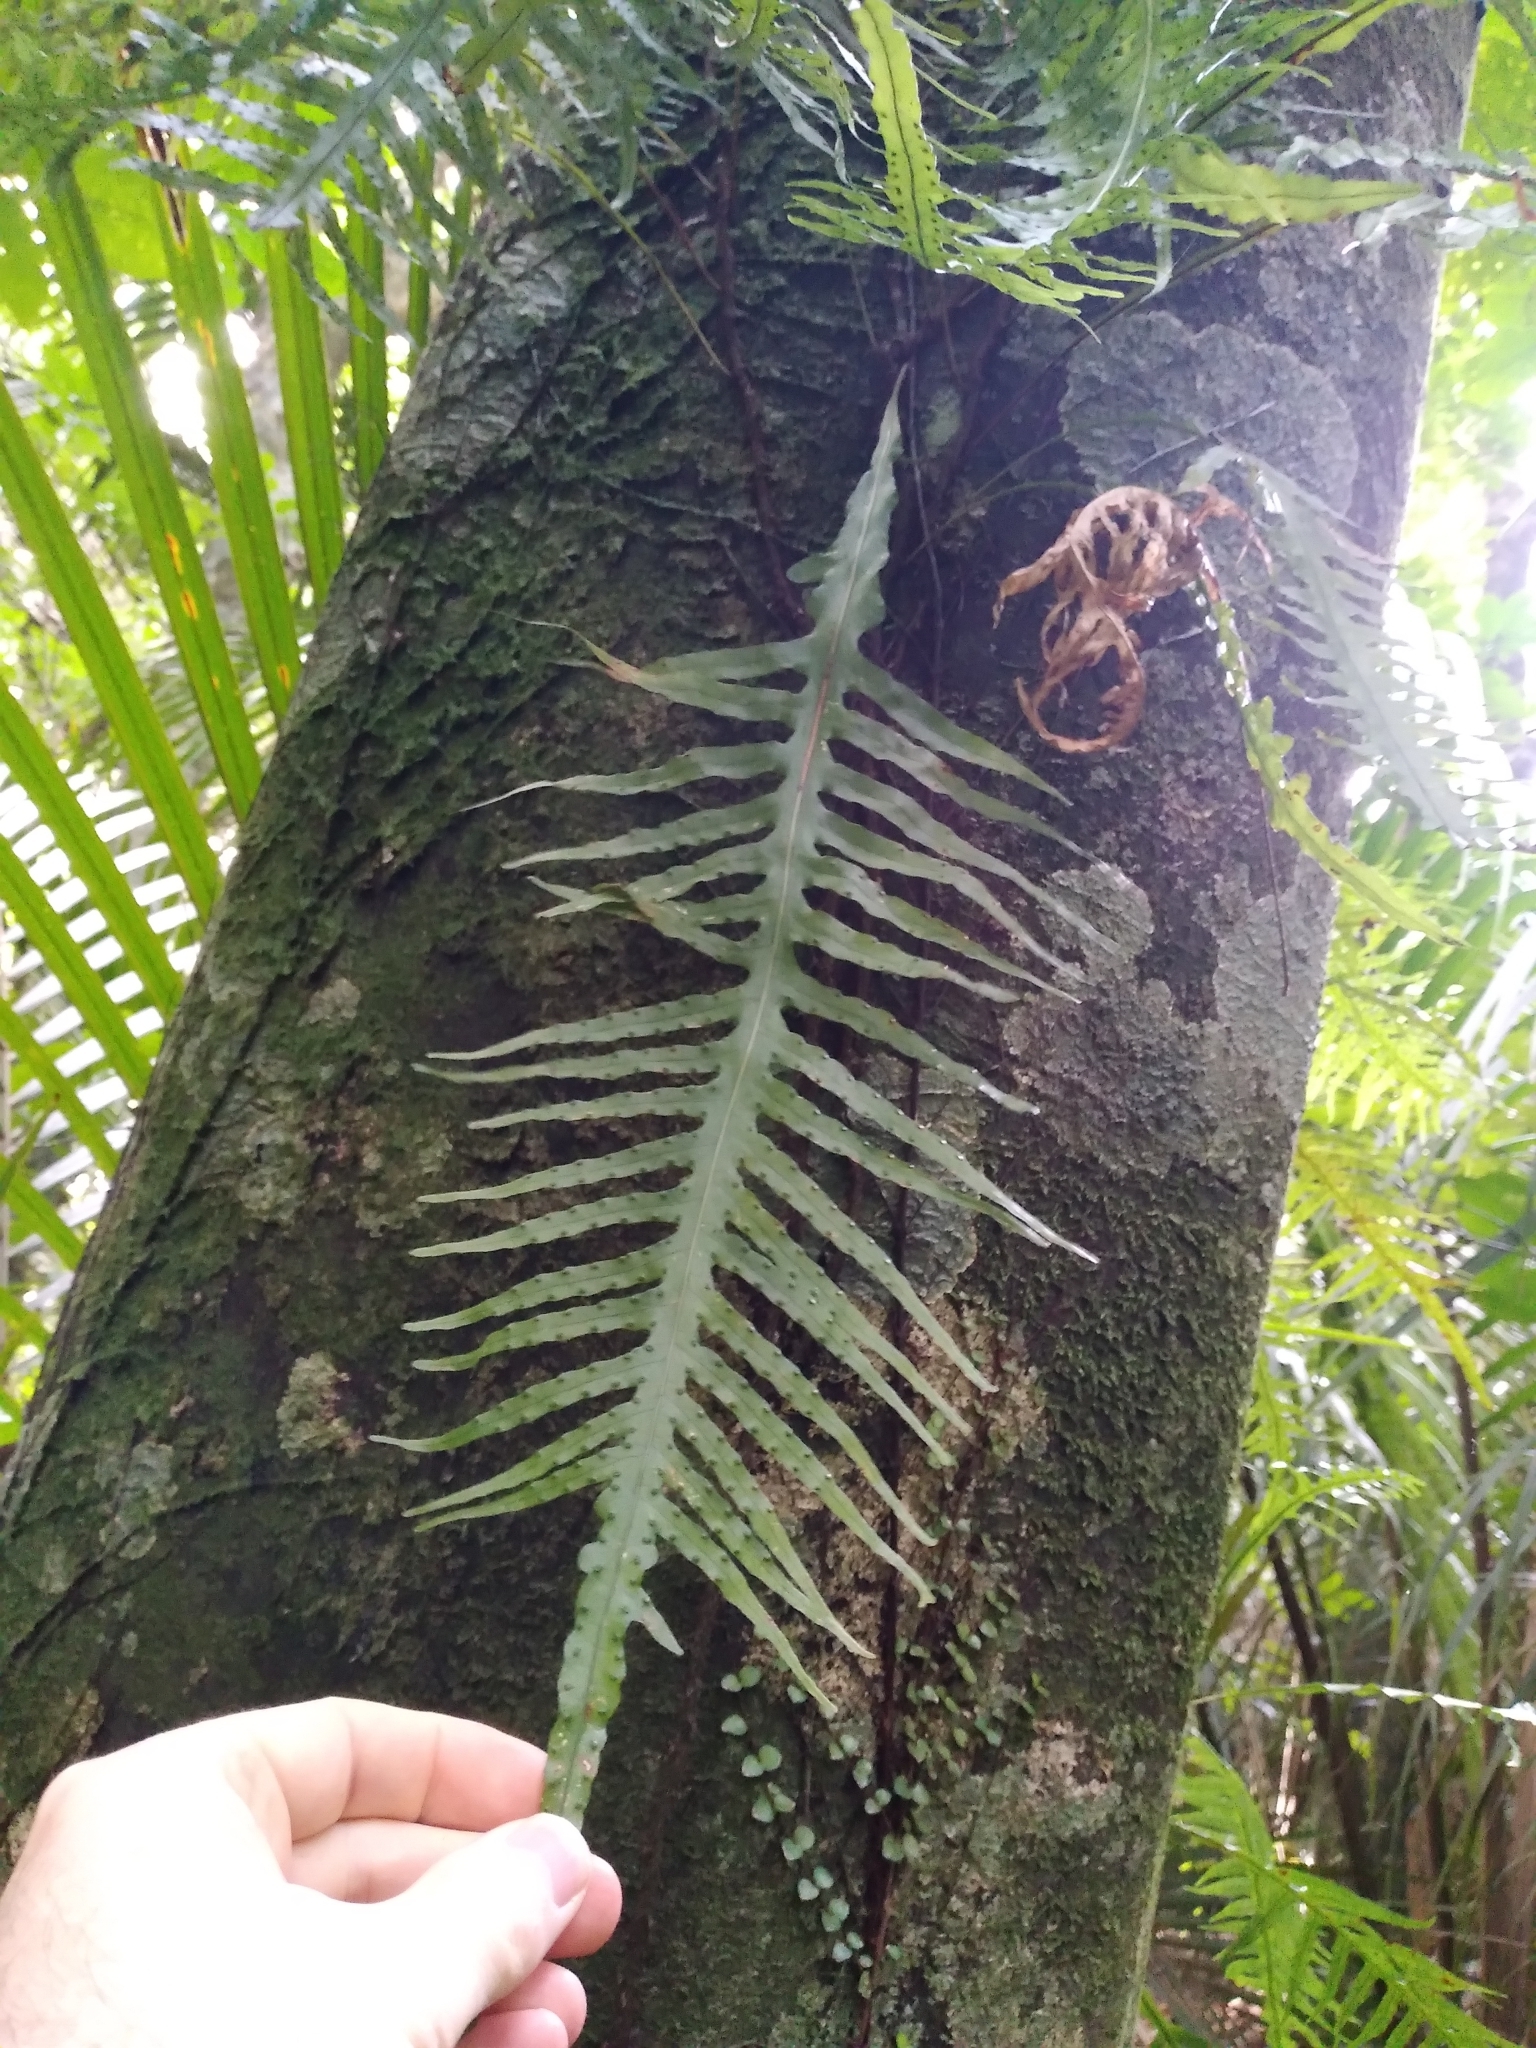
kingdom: Plantae
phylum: Tracheophyta
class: Polypodiopsida
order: Polypodiales
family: Polypodiaceae
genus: Lecanopteris
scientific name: Lecanopteris scandens
